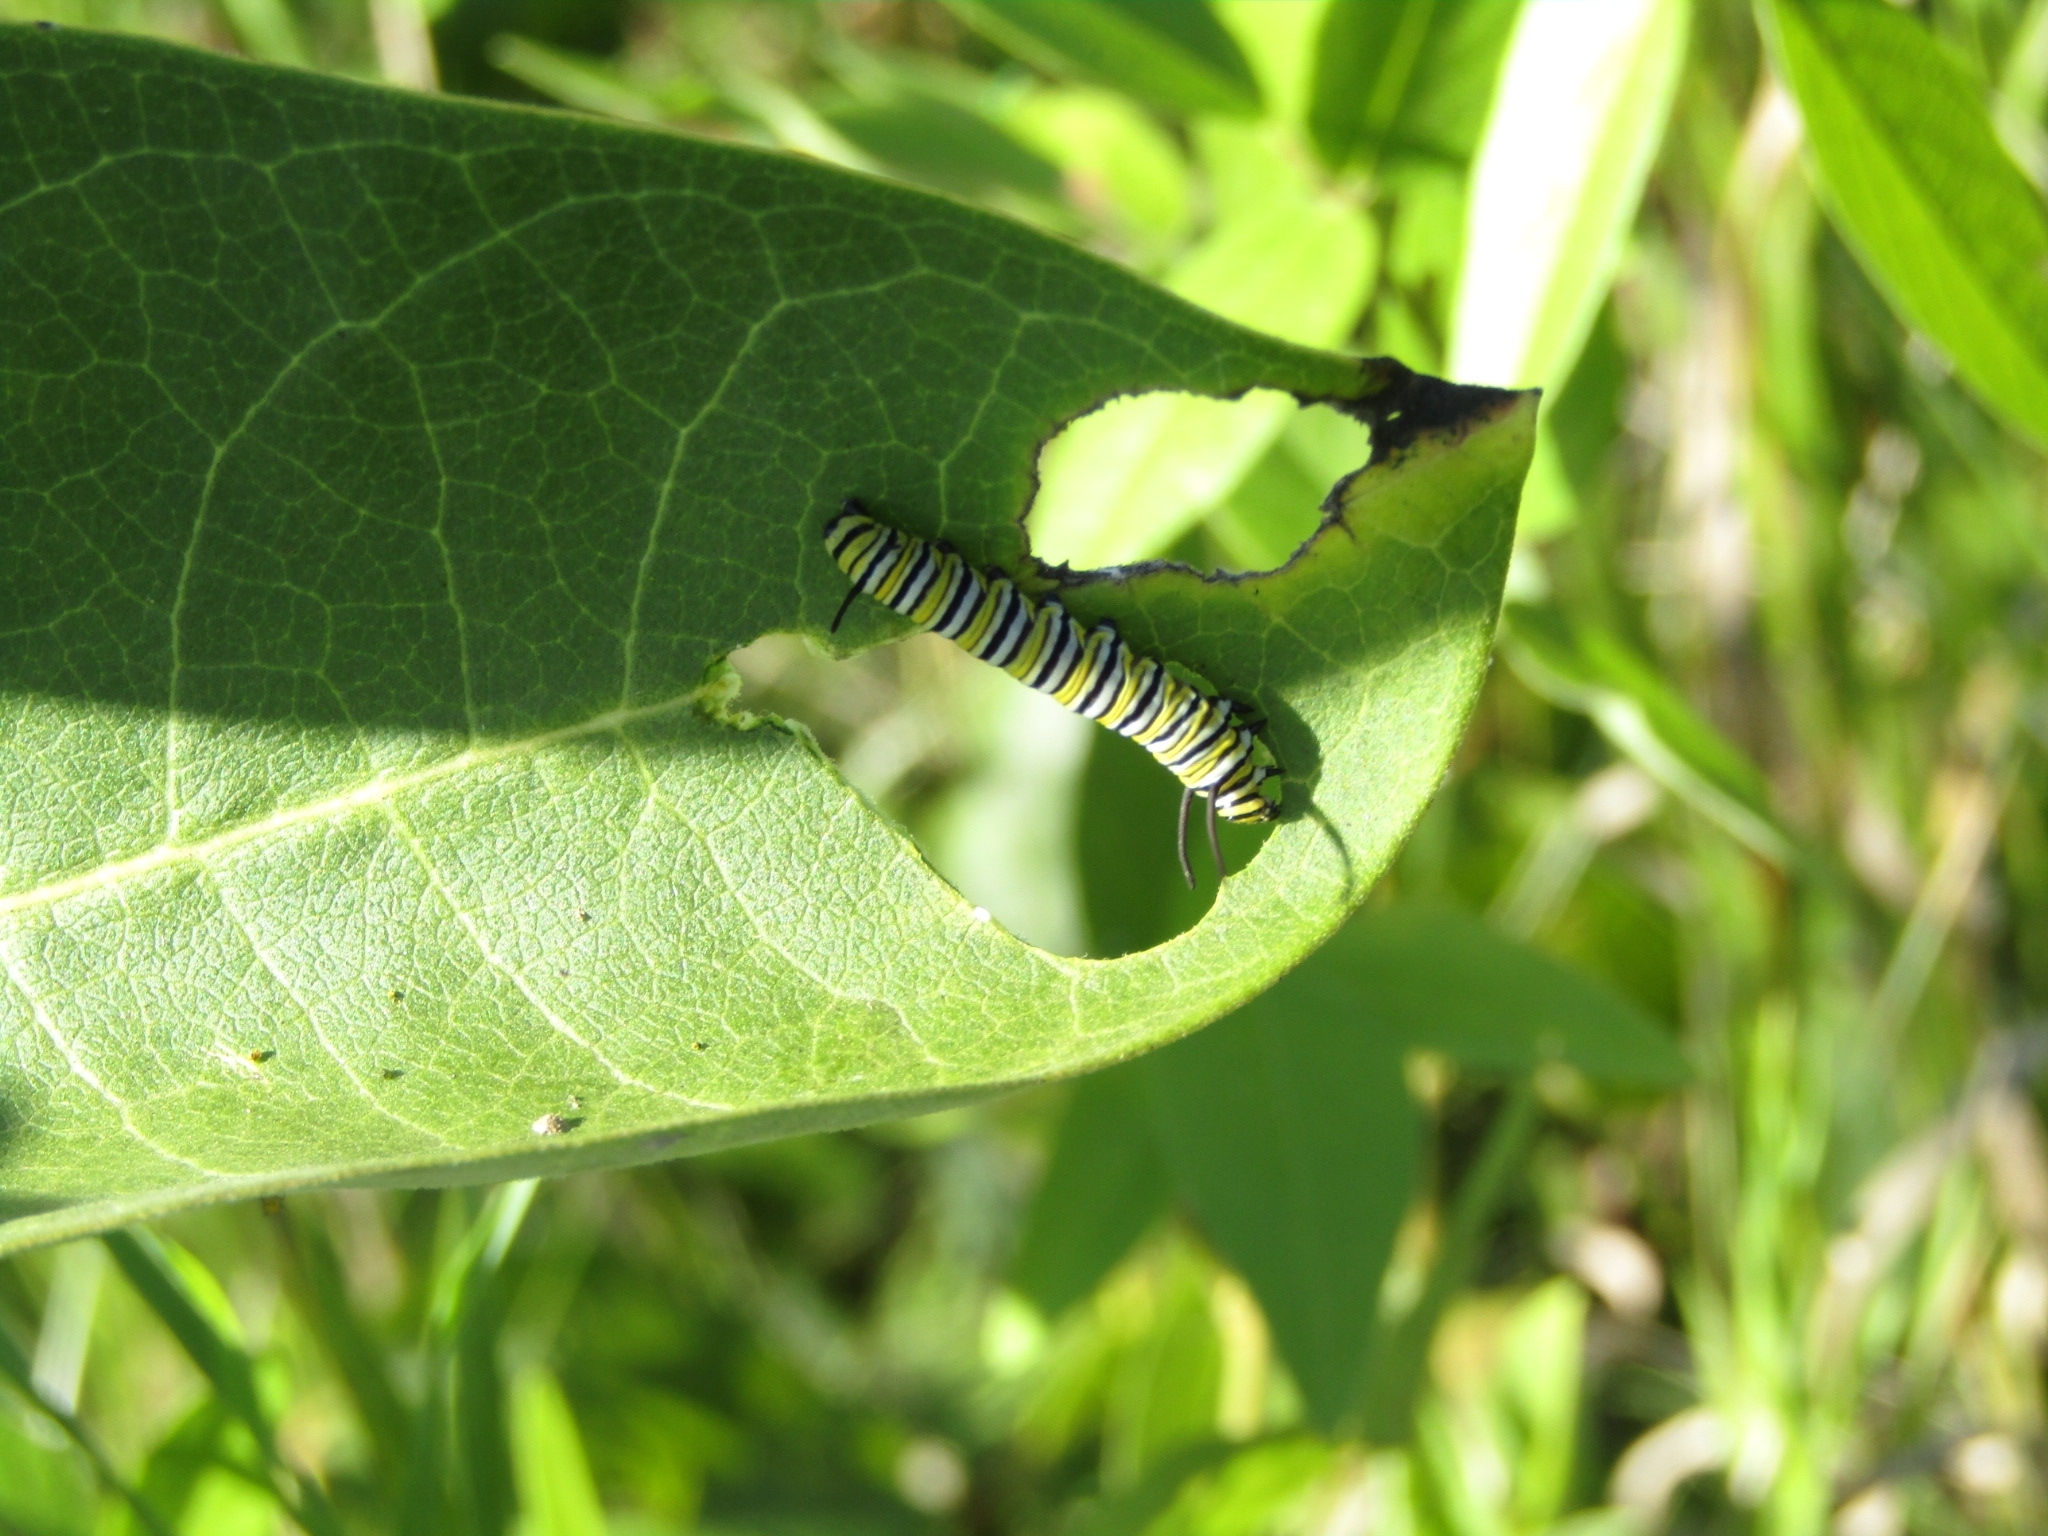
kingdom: Animalia
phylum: Arthropoda
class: Insecta
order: Lepidoptera
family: Nymphalidae
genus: Danaus
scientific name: Danaus plexippus
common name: Monarch
